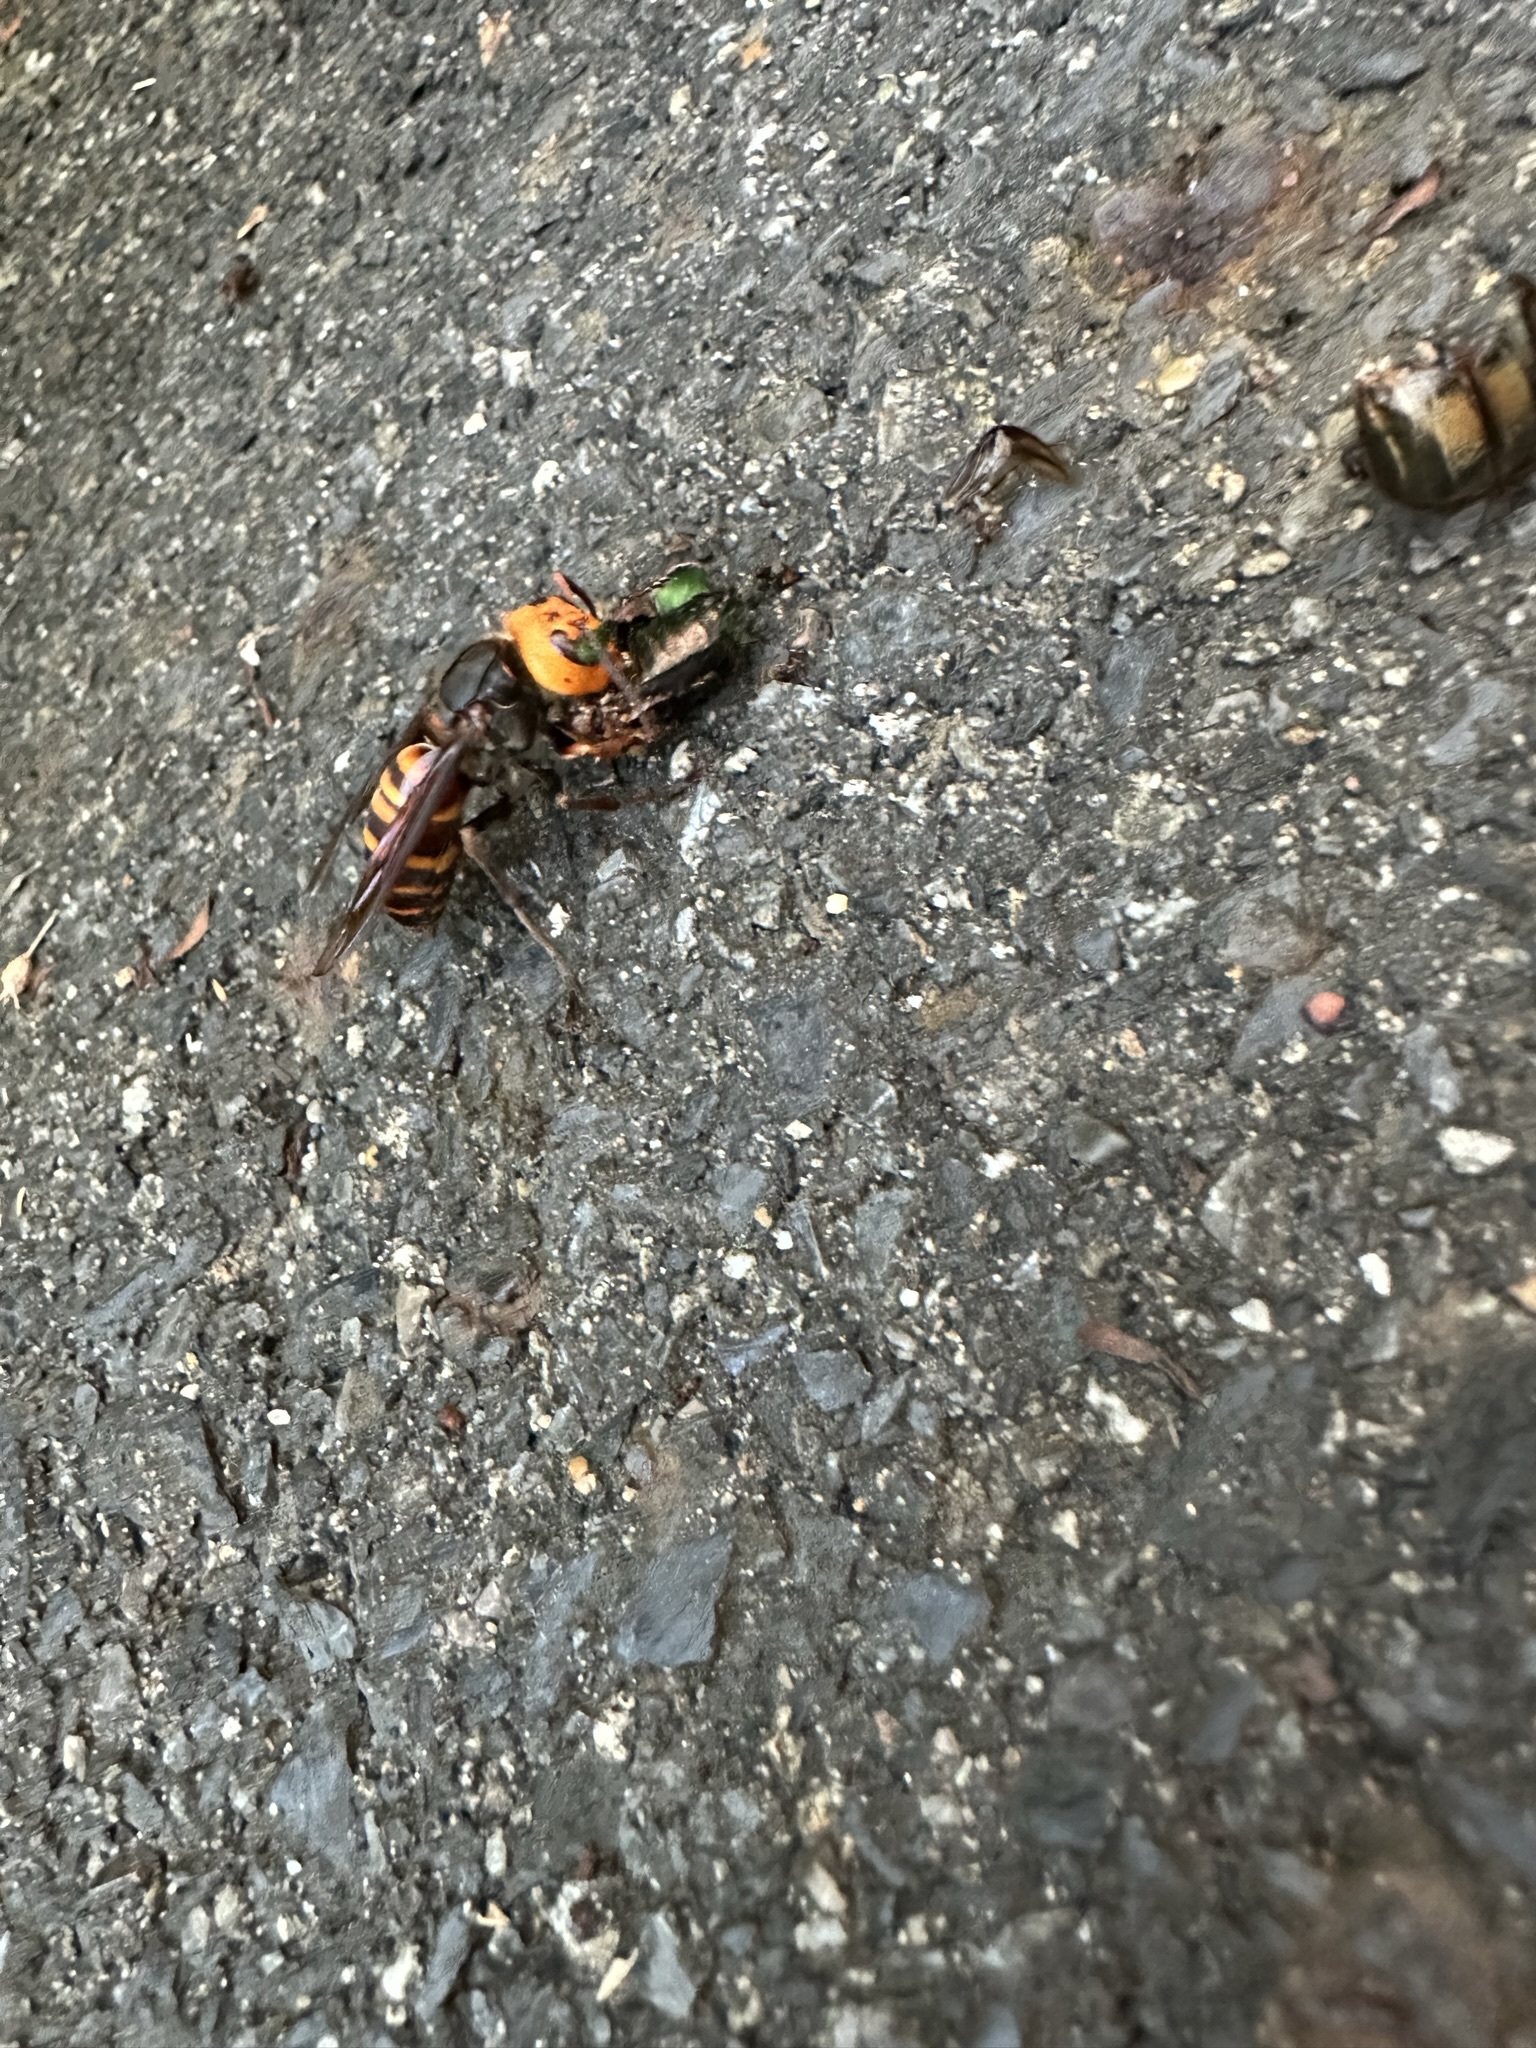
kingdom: Animalia
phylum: Arthropoda
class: Insecta
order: Hymenoptera
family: Vespidae
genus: Vespa
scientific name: Vespa mandarinia
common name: Asian giant hornet
